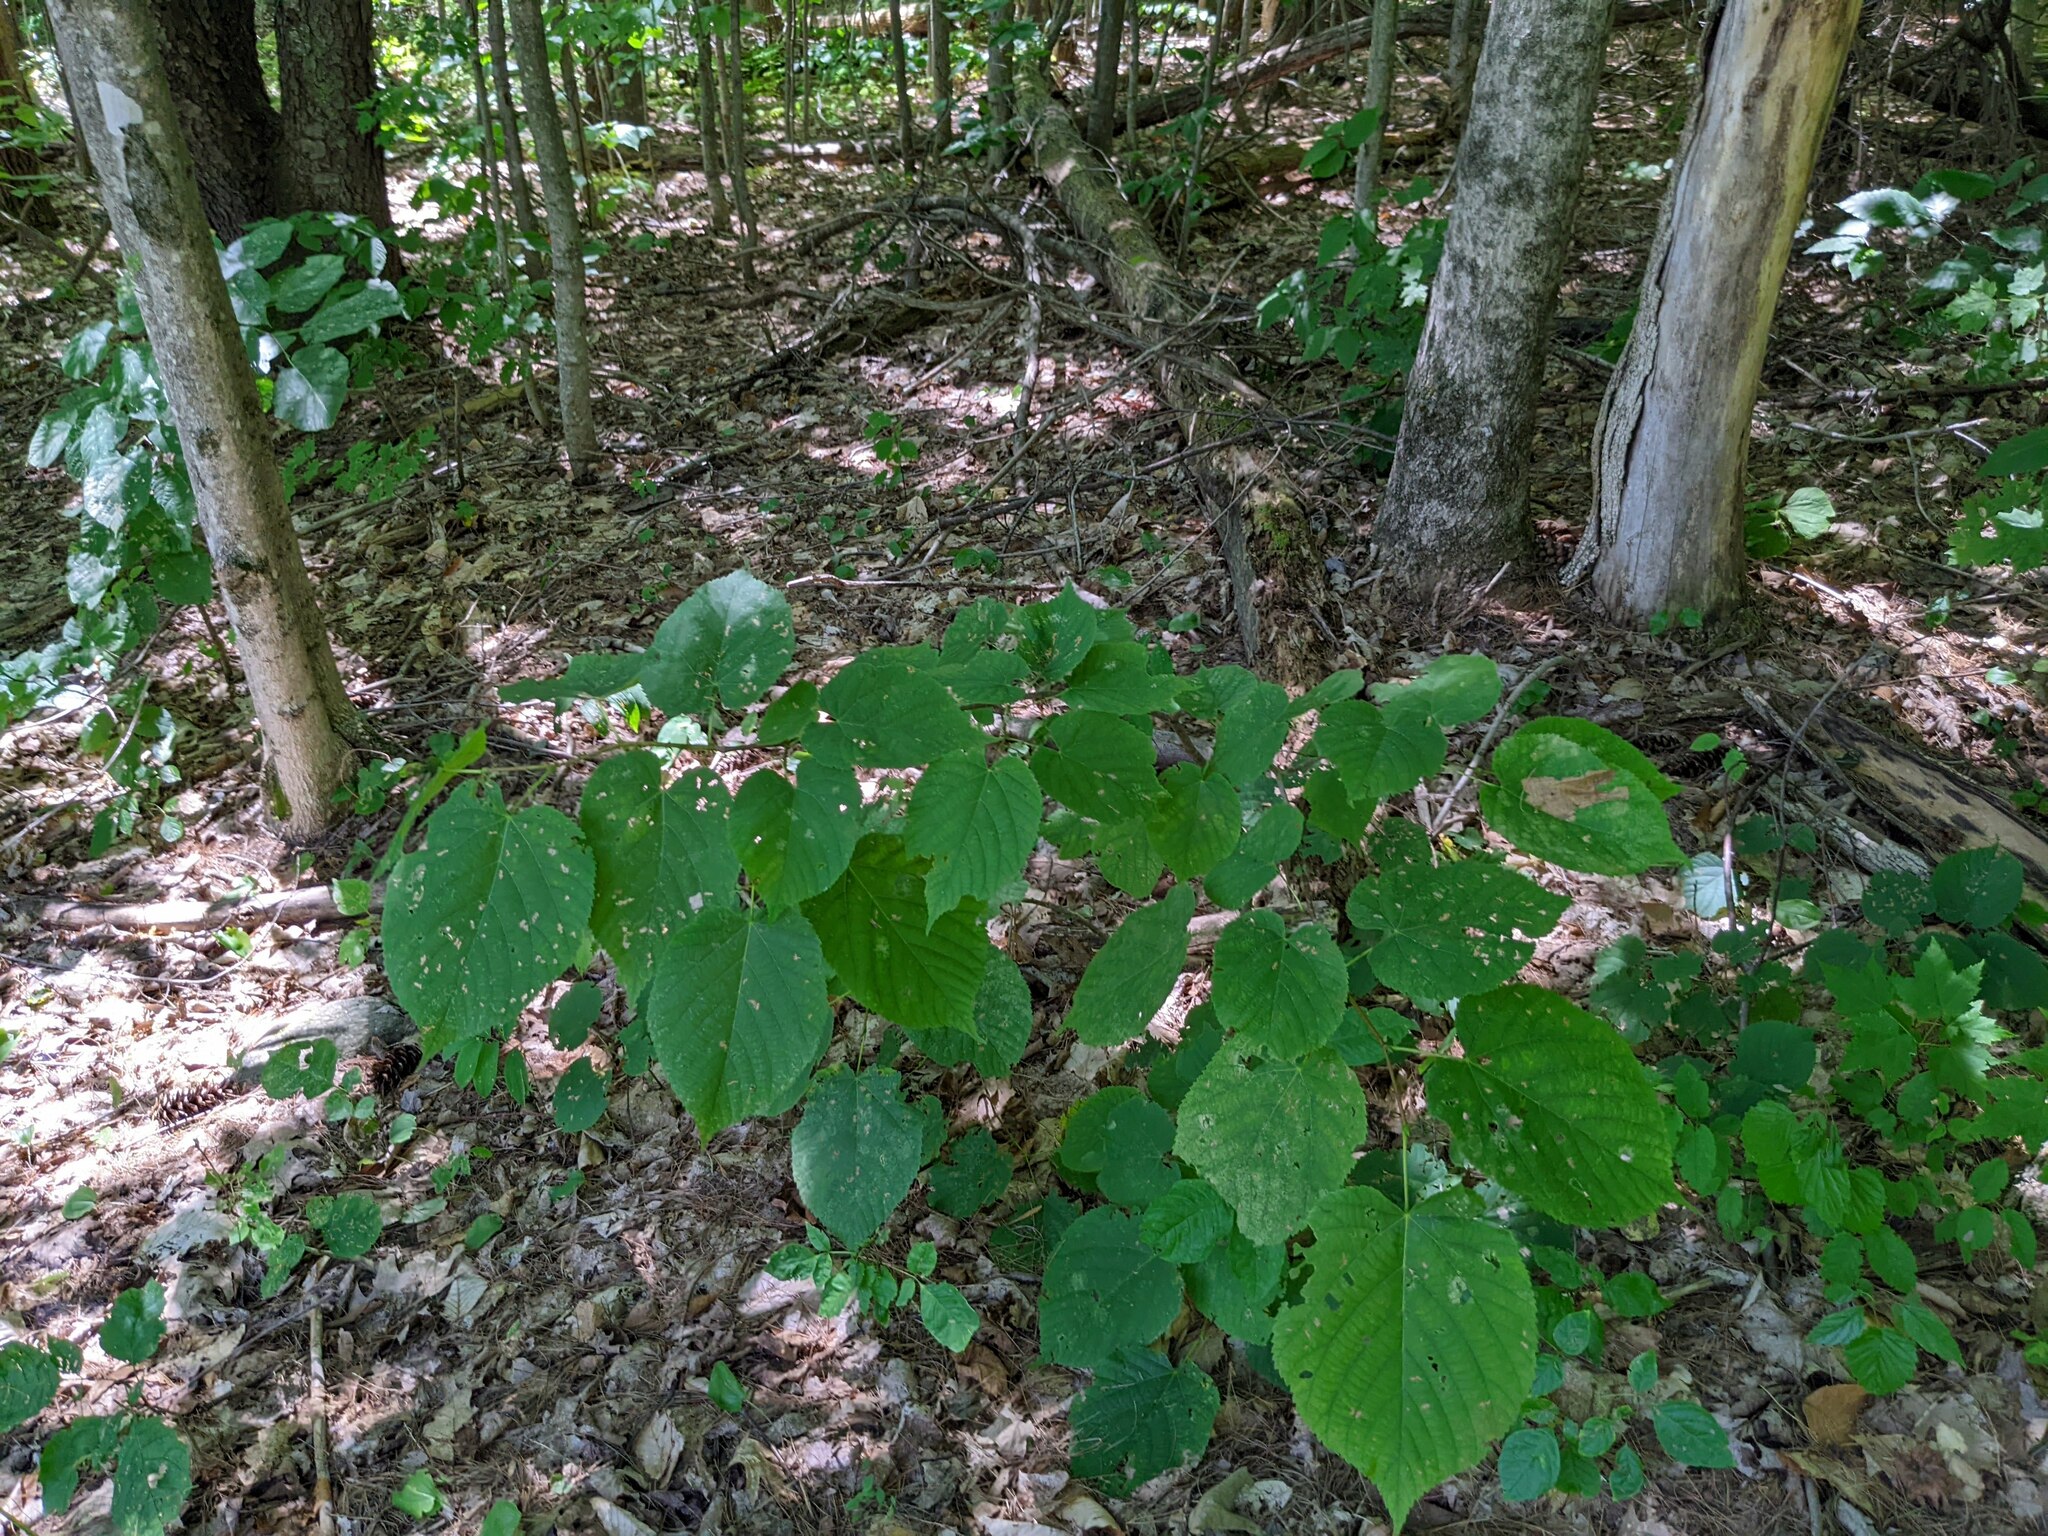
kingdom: Plantae
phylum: Tracheophyta
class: Magnoliopsida
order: Malvales
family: Malvaceae
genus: Tilia
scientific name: Tilia americana
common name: Basswood
